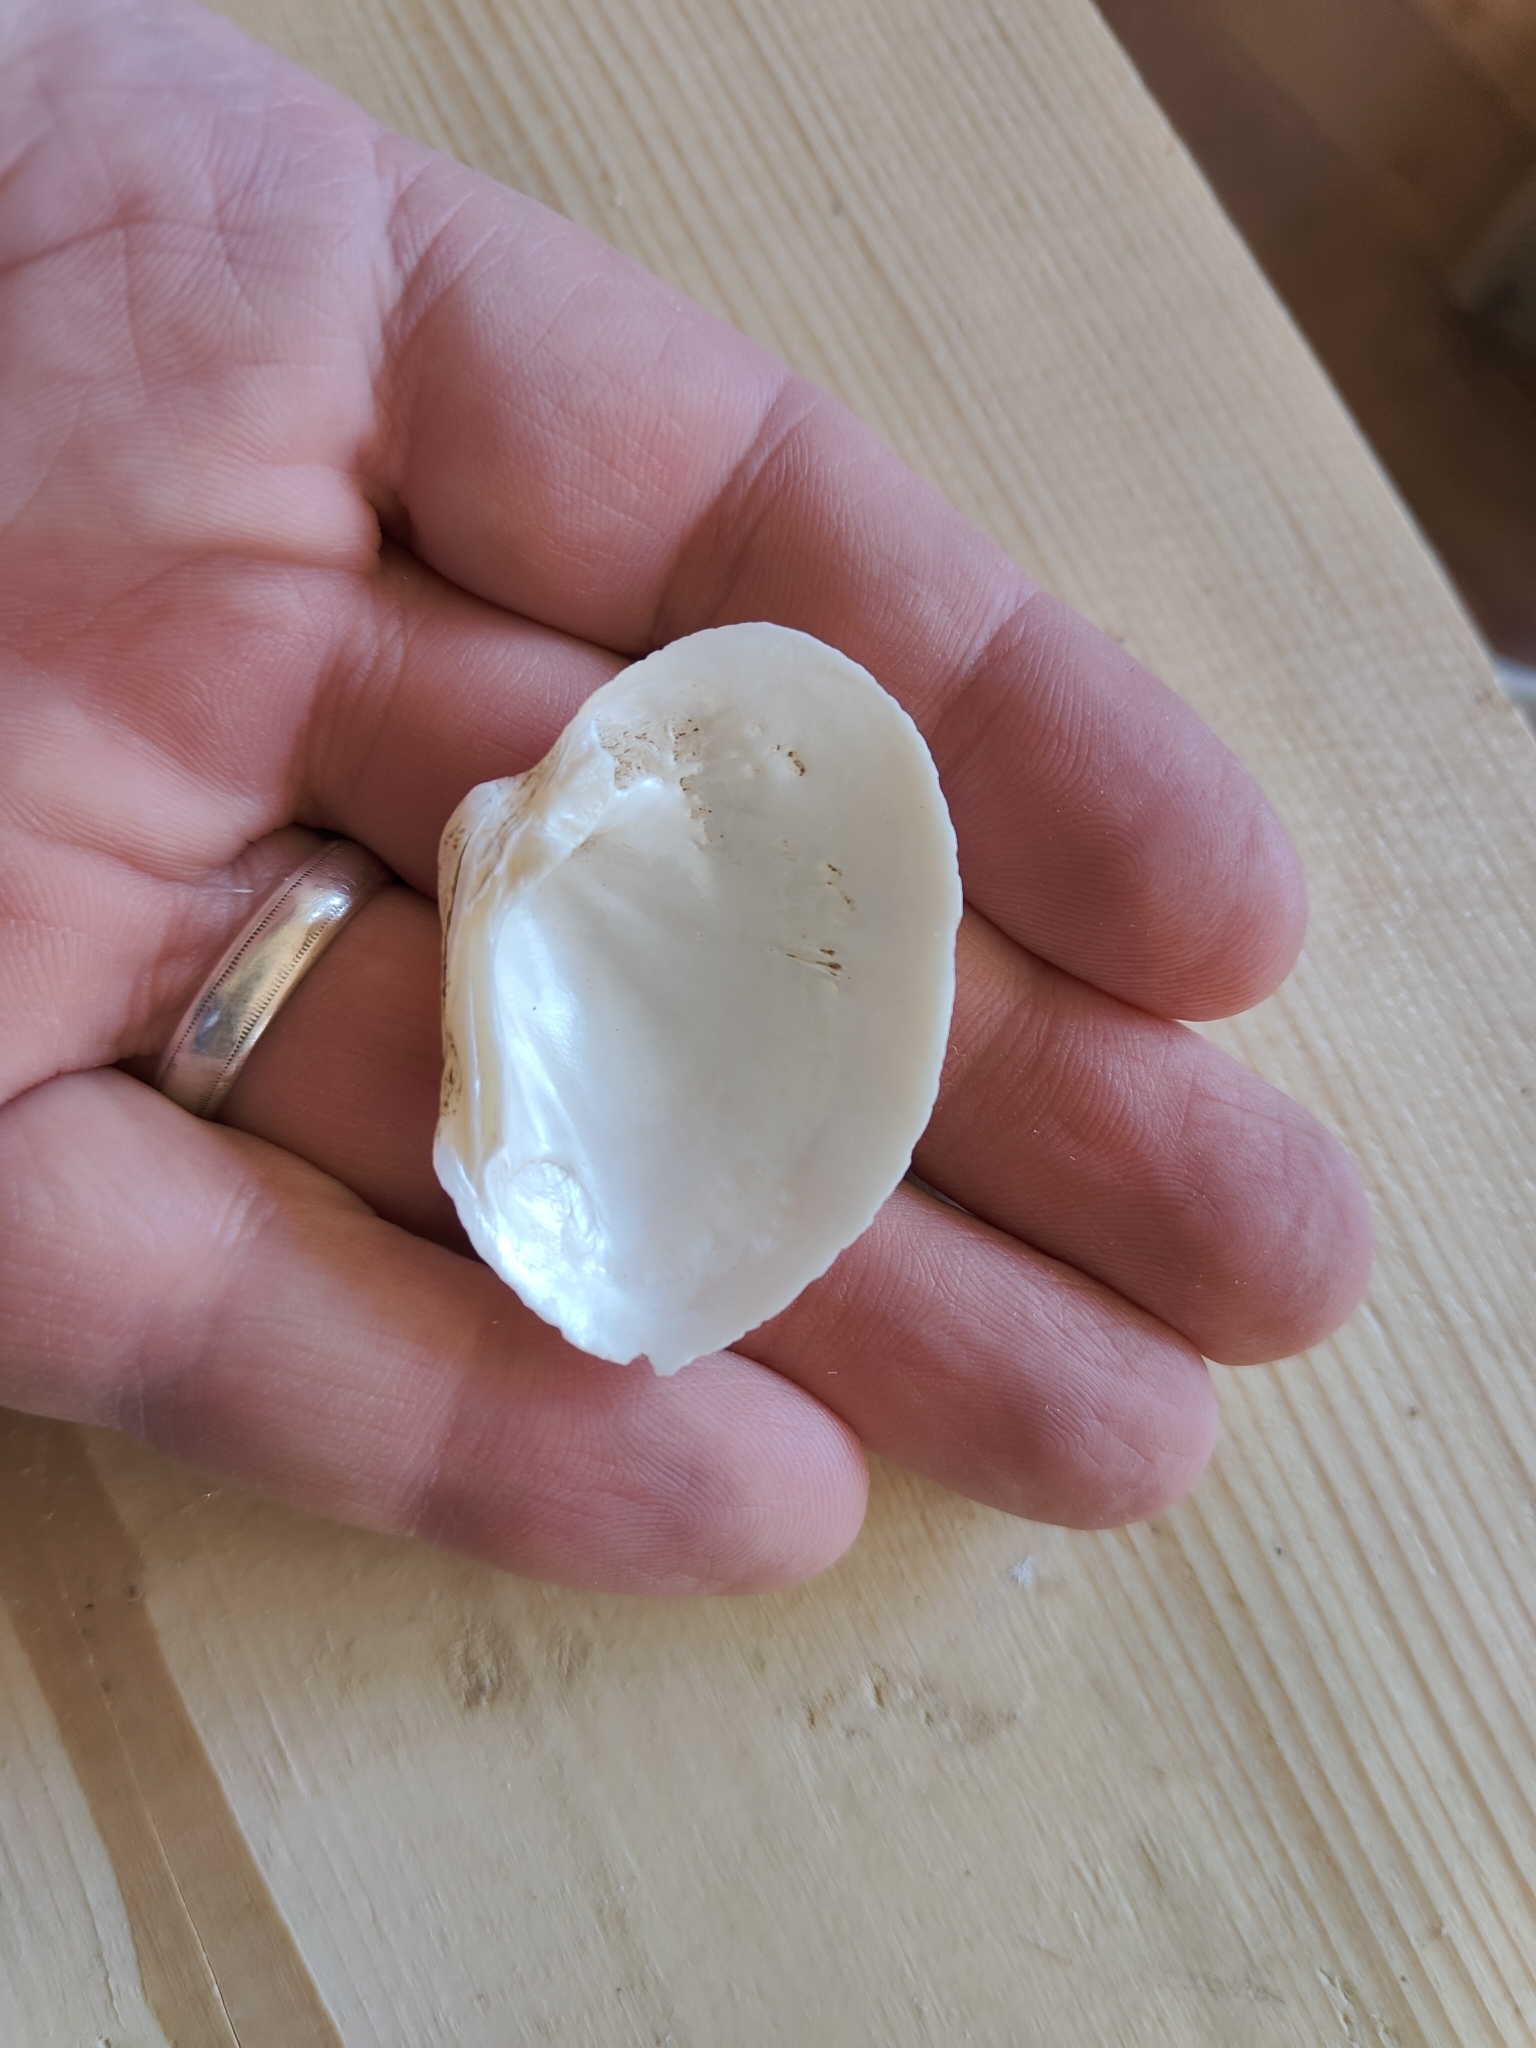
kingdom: Animalia
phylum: Mollusca
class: Bivalvia
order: Unionida
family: Unionidae
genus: Fusconaia
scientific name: Fusconaia flava
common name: Wabash pigtoe
